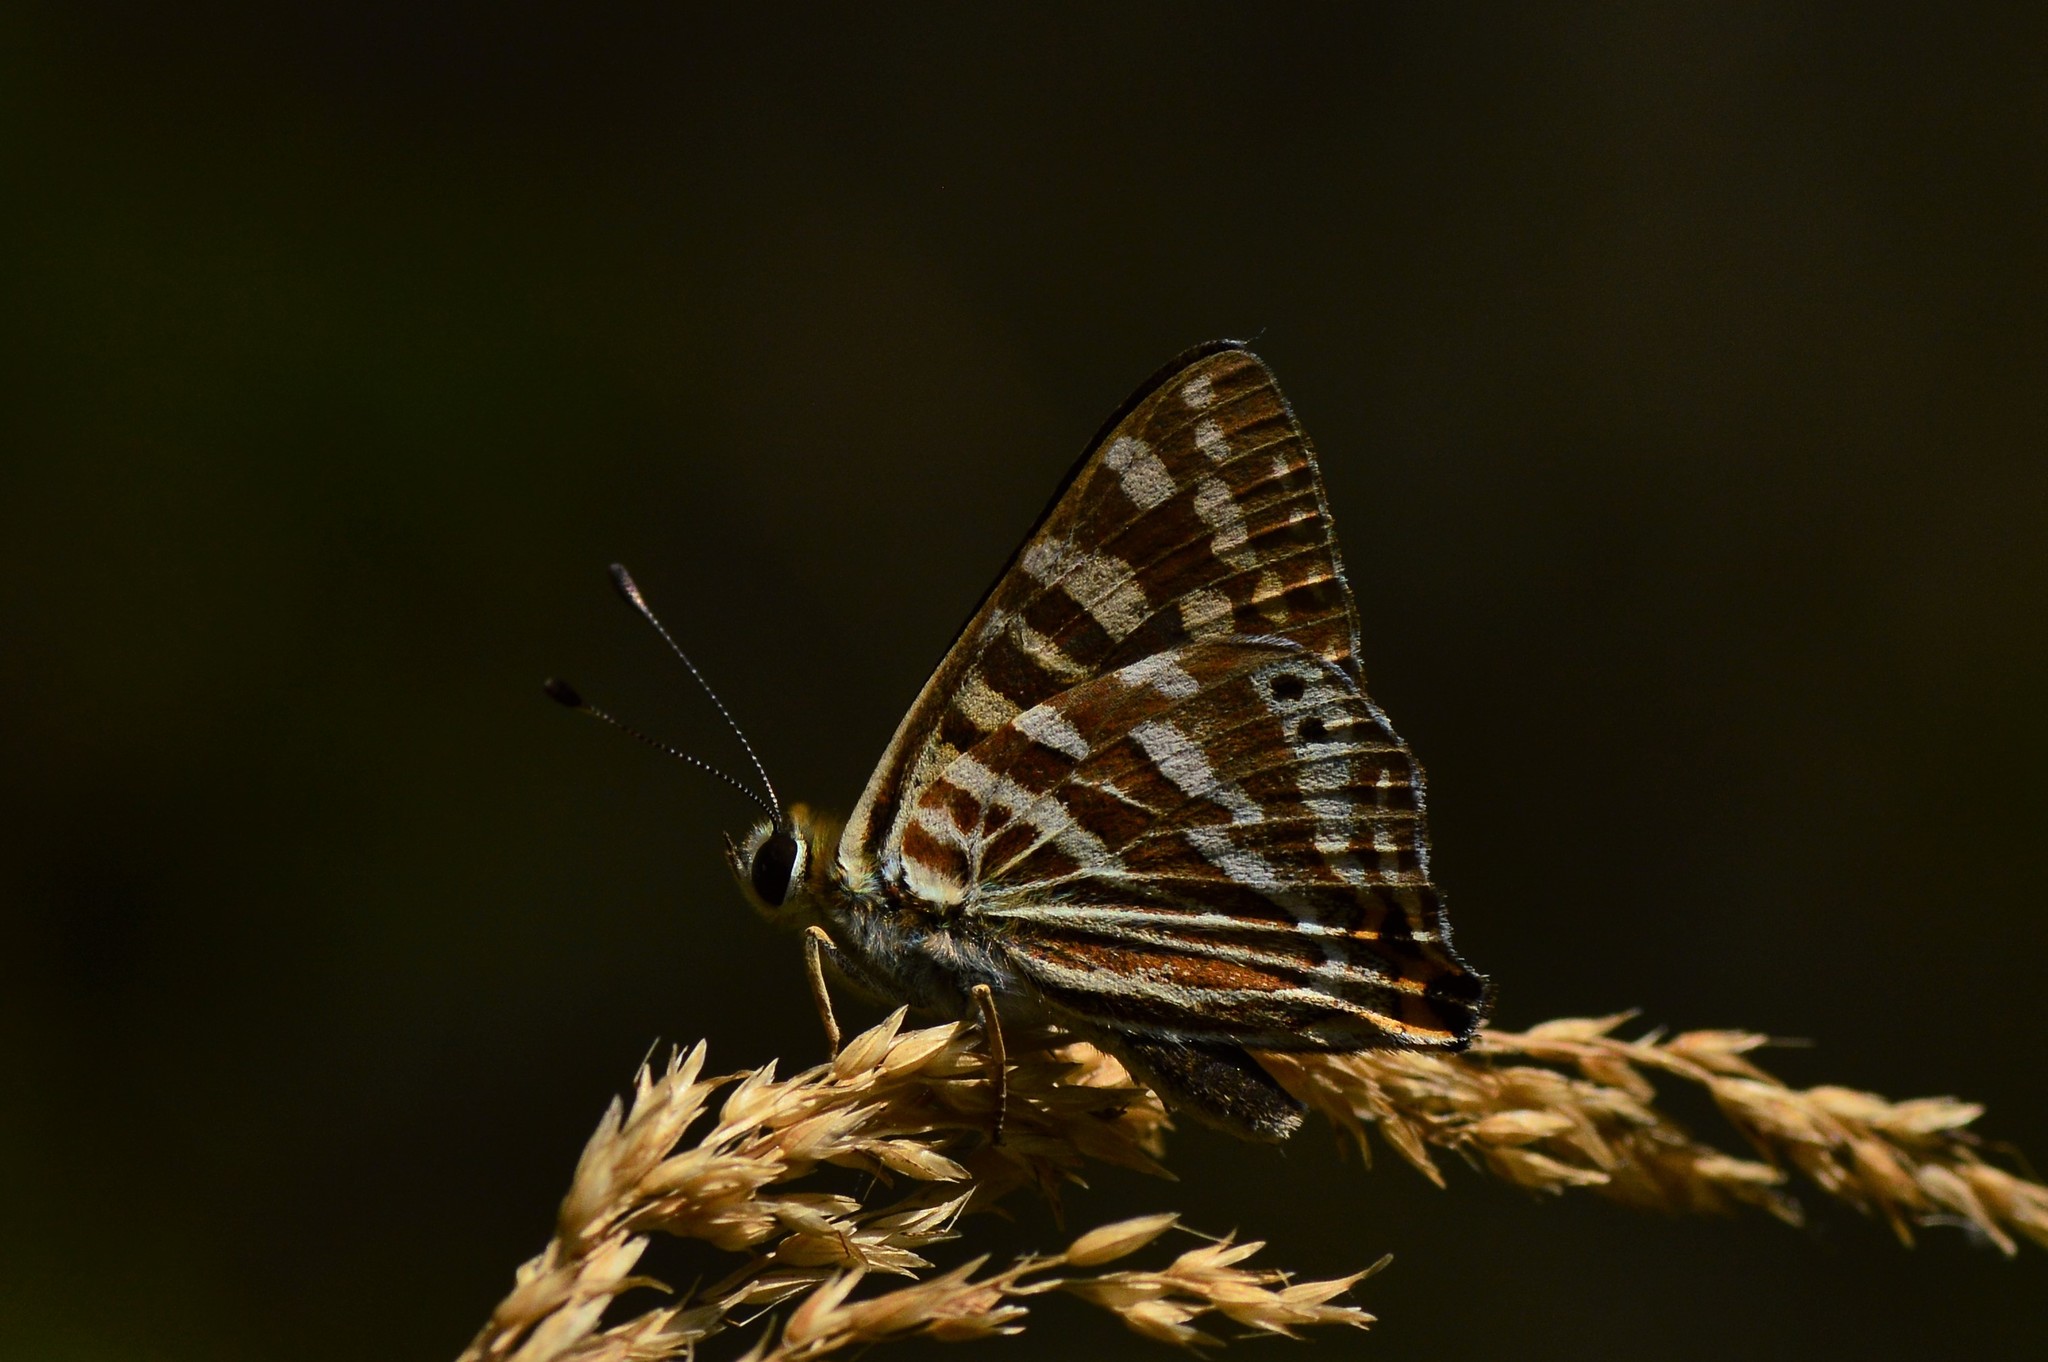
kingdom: Animalia
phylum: Arthropoda
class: Insecta
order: Lepidoptera
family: Lycaenidae
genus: Dodona
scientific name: Dodona durga
